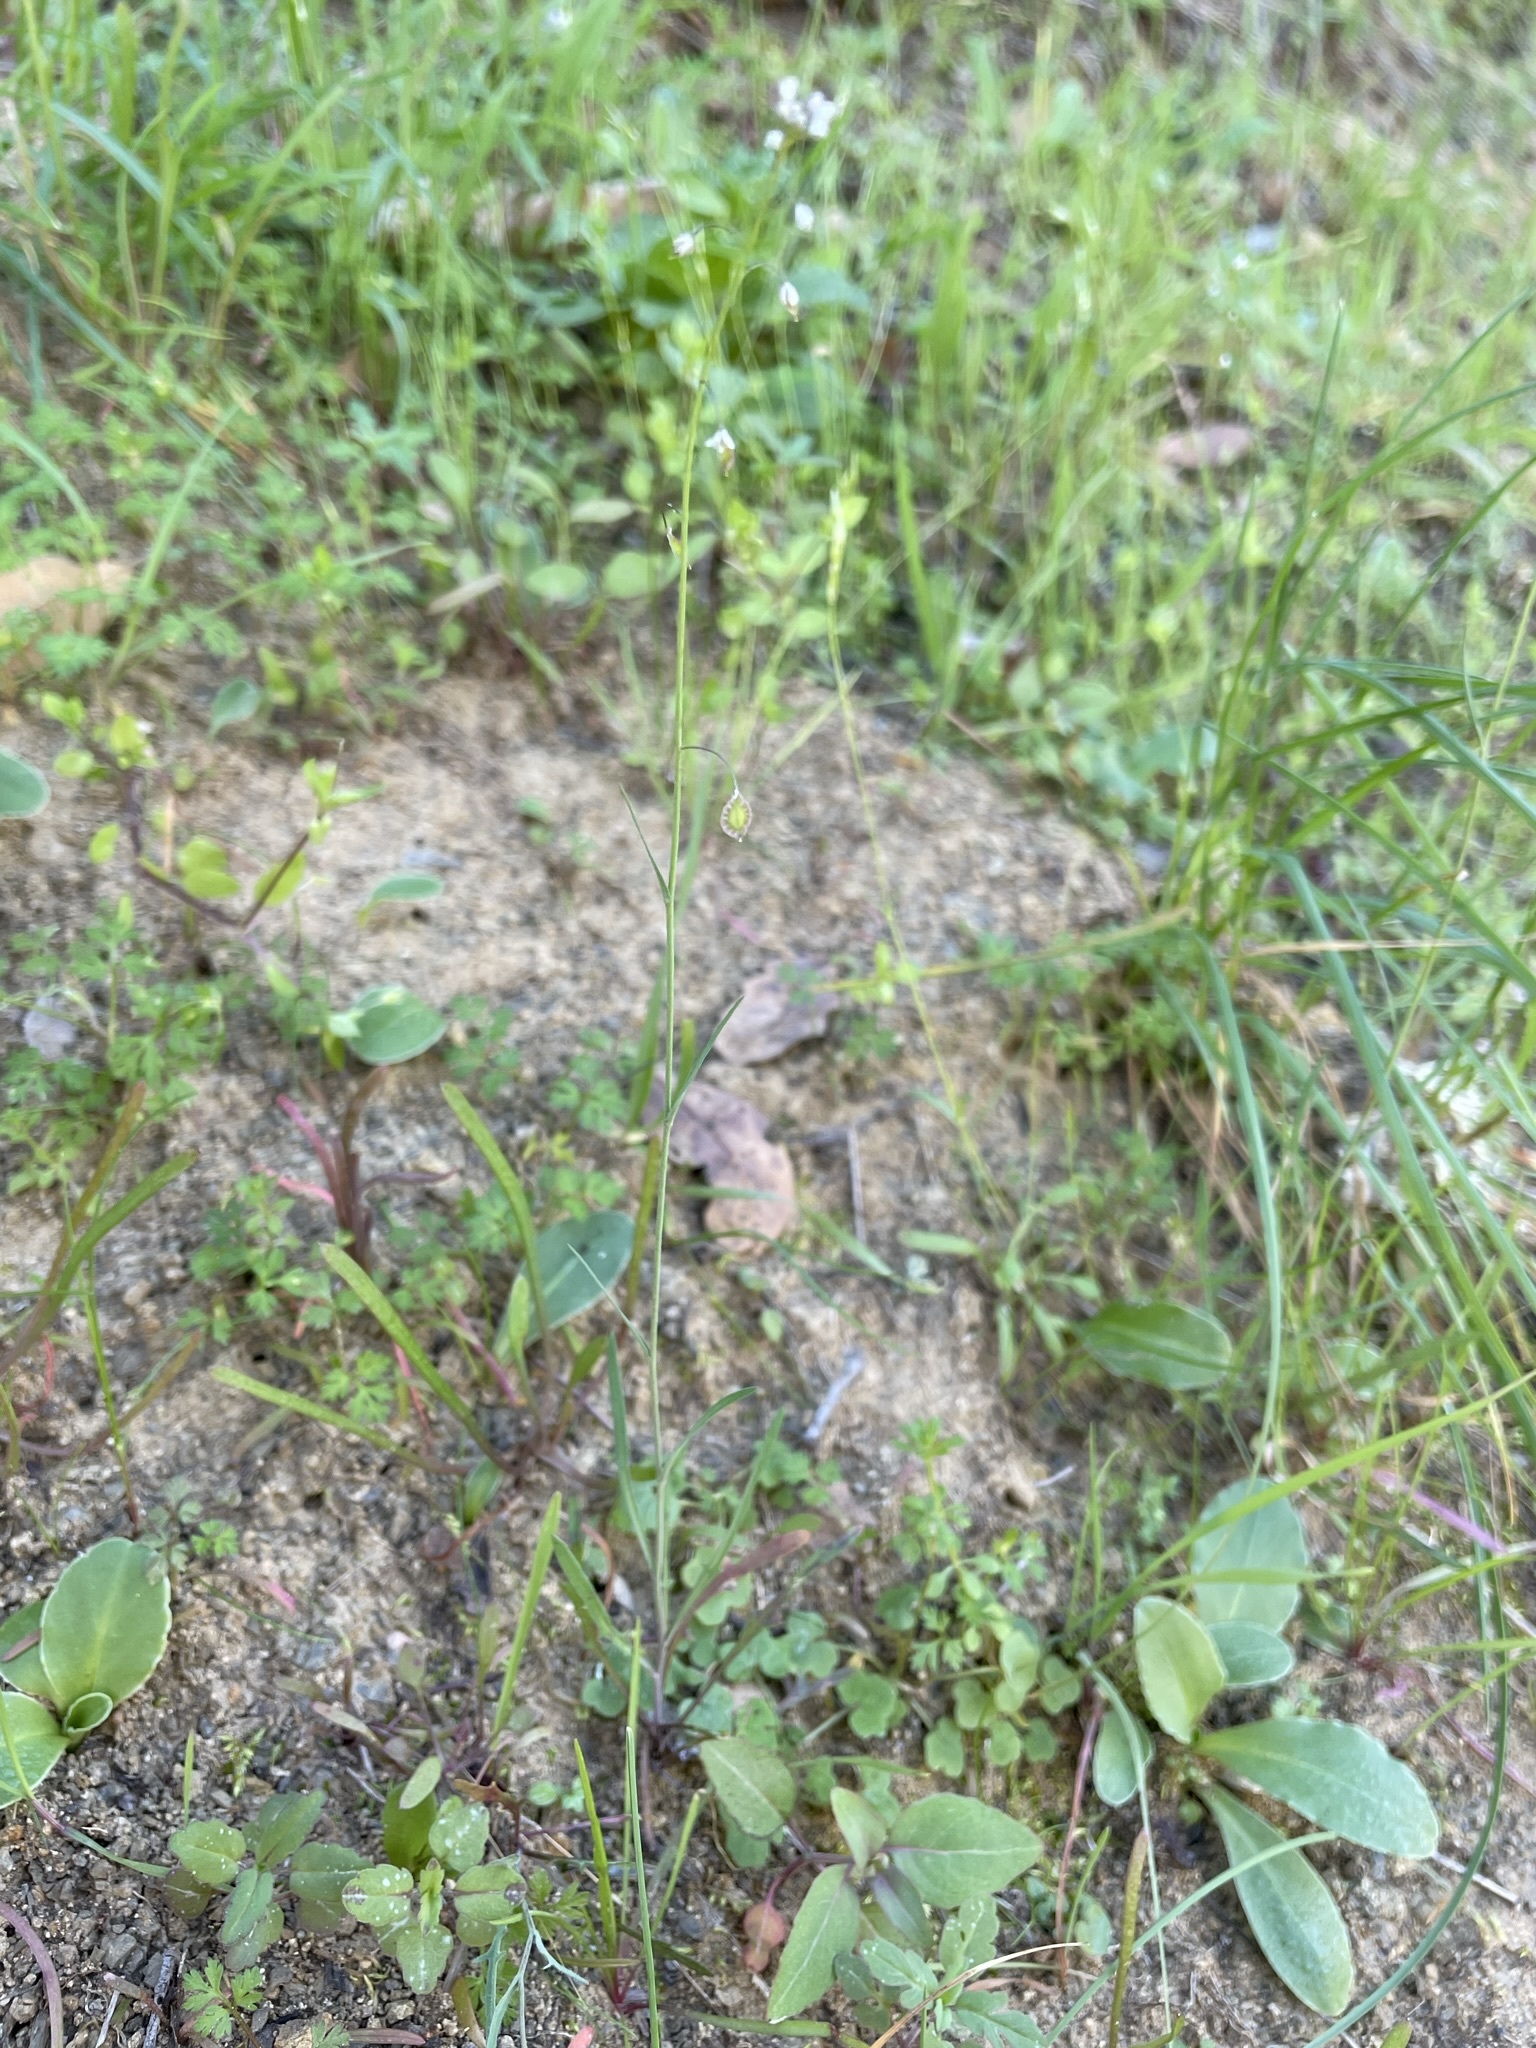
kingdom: Plantae
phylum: Tracheophyta
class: Magnoliopsida
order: Brassicales
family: Brassicaceae
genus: Thysanocarpus
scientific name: Thysanocarpus laciniatus
